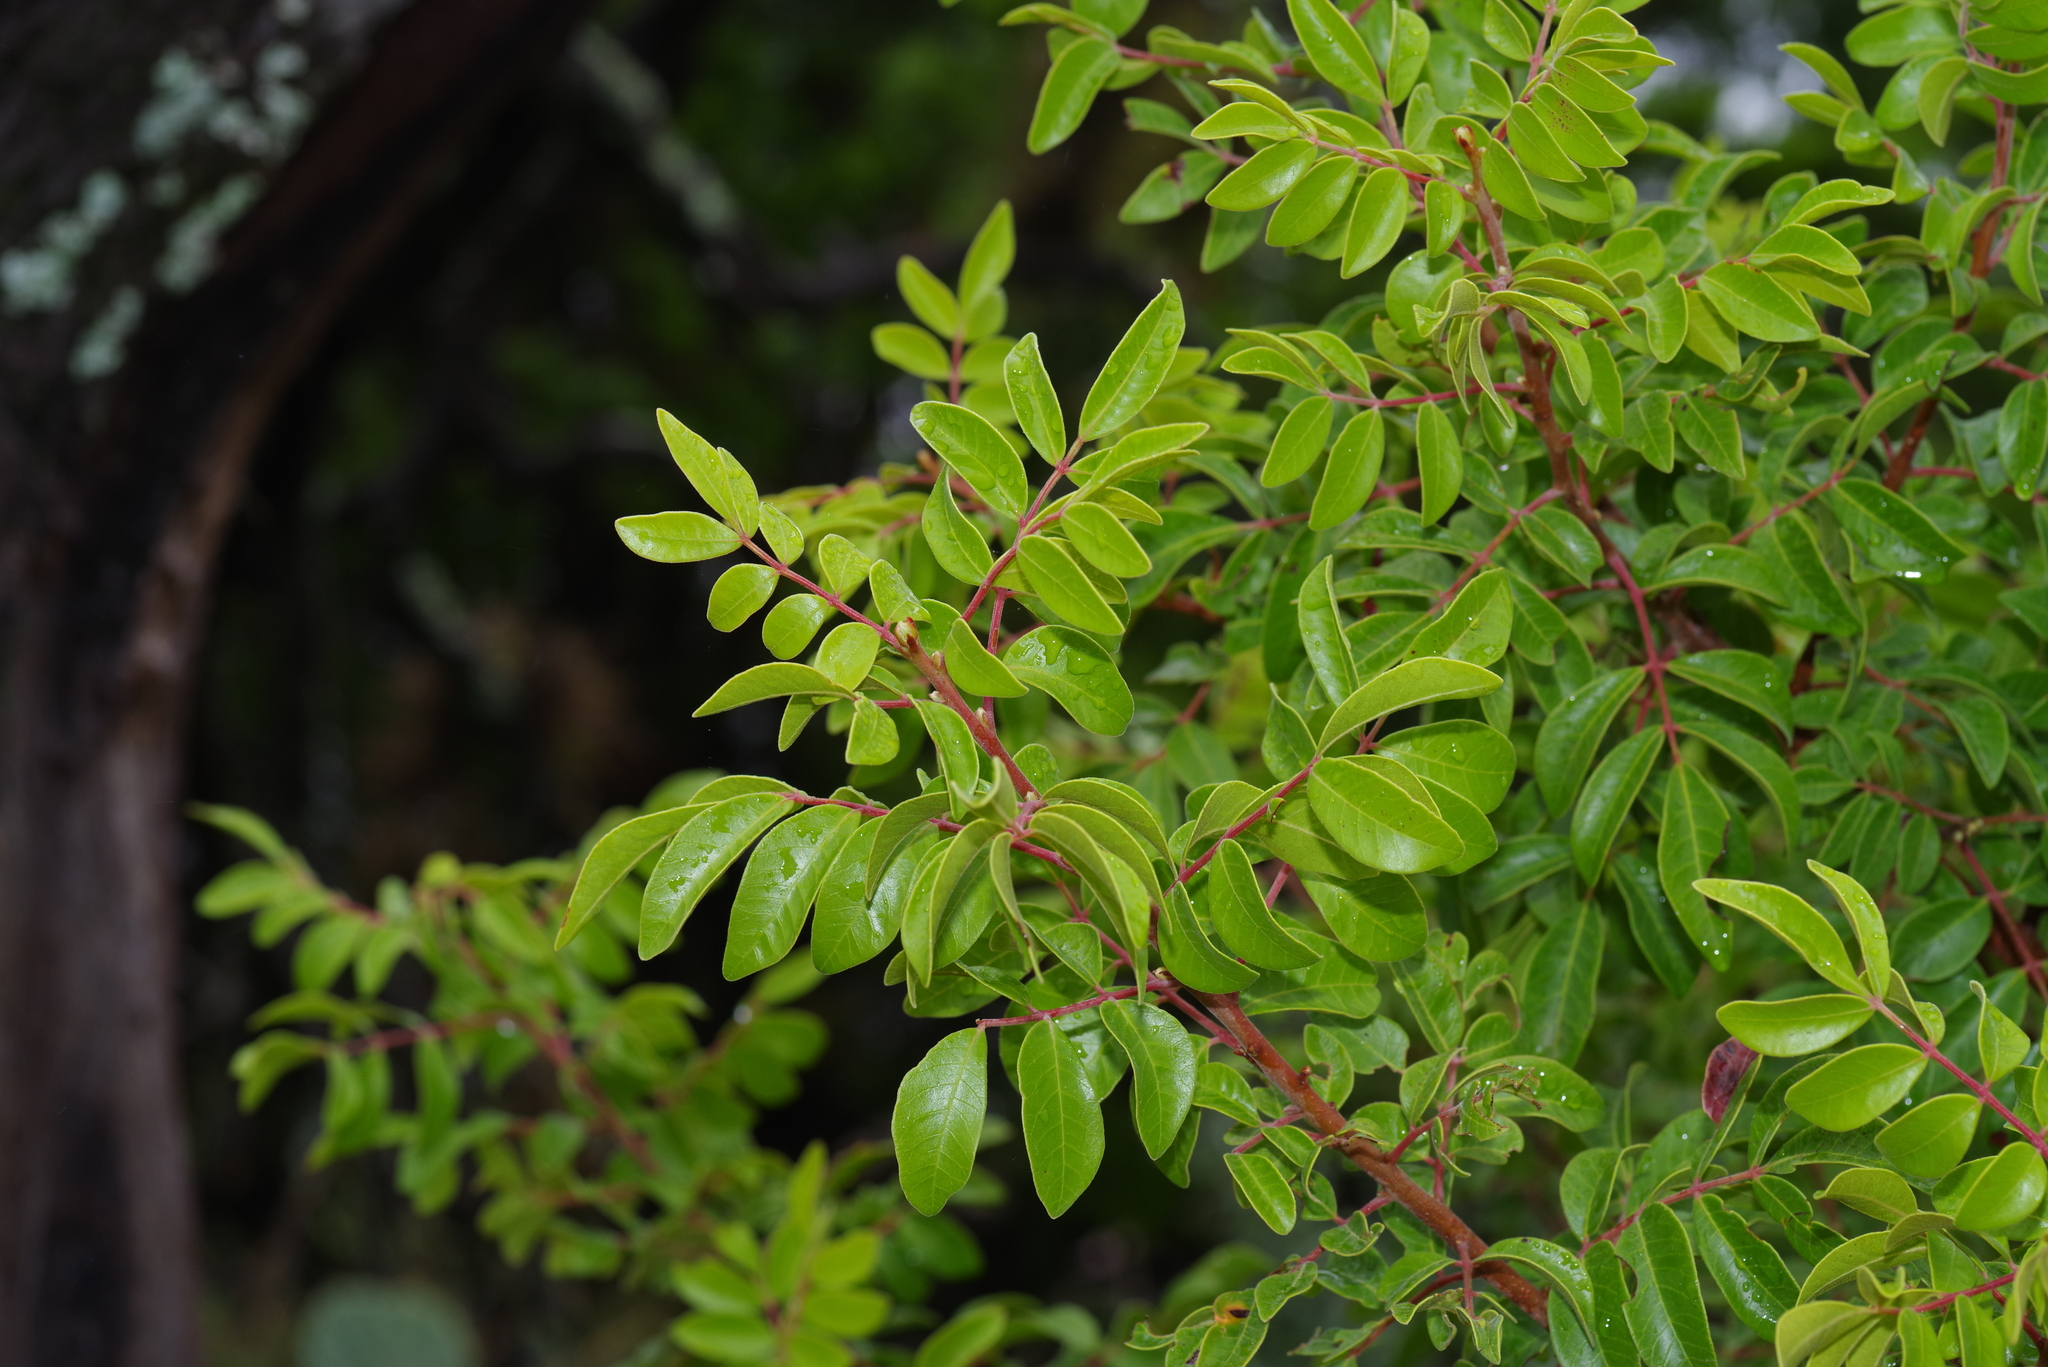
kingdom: Plantae
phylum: Tracheophyta
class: Magnoliopsida
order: Sapindales
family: Anacardiaceae
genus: Rhus
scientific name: Rhus virens
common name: Evergreen sumac
